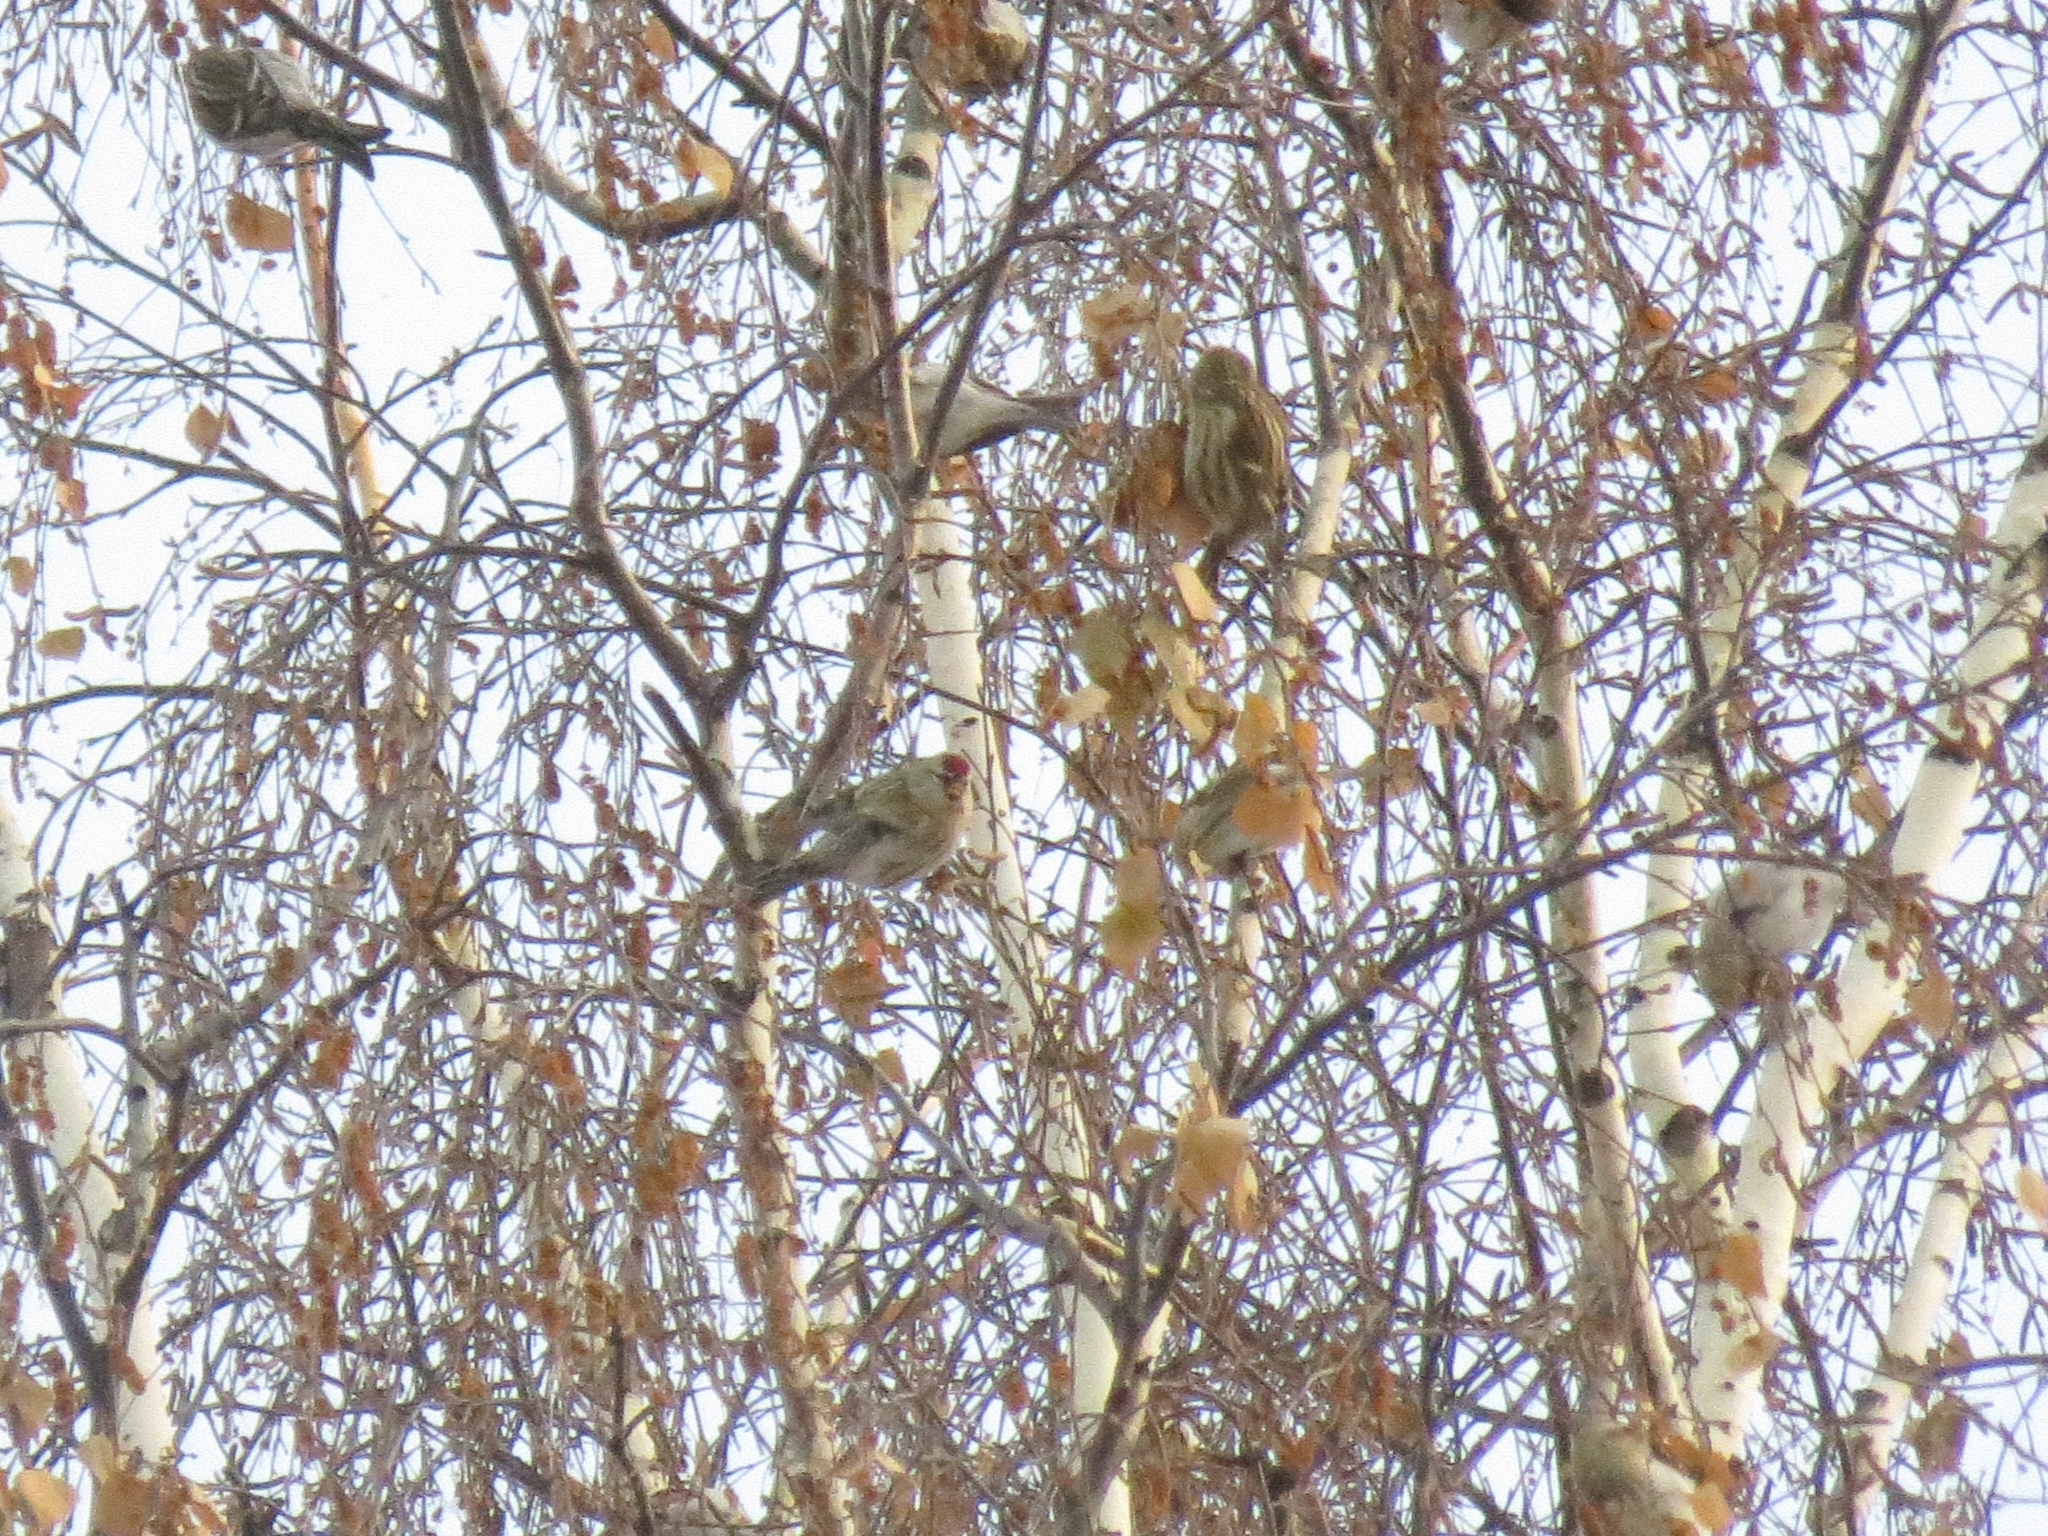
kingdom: Animalia
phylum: Chordata
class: Aves
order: Passeriformes
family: Fringillidae
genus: Acanthis
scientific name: Acanthis flammea
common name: Common redpoll
